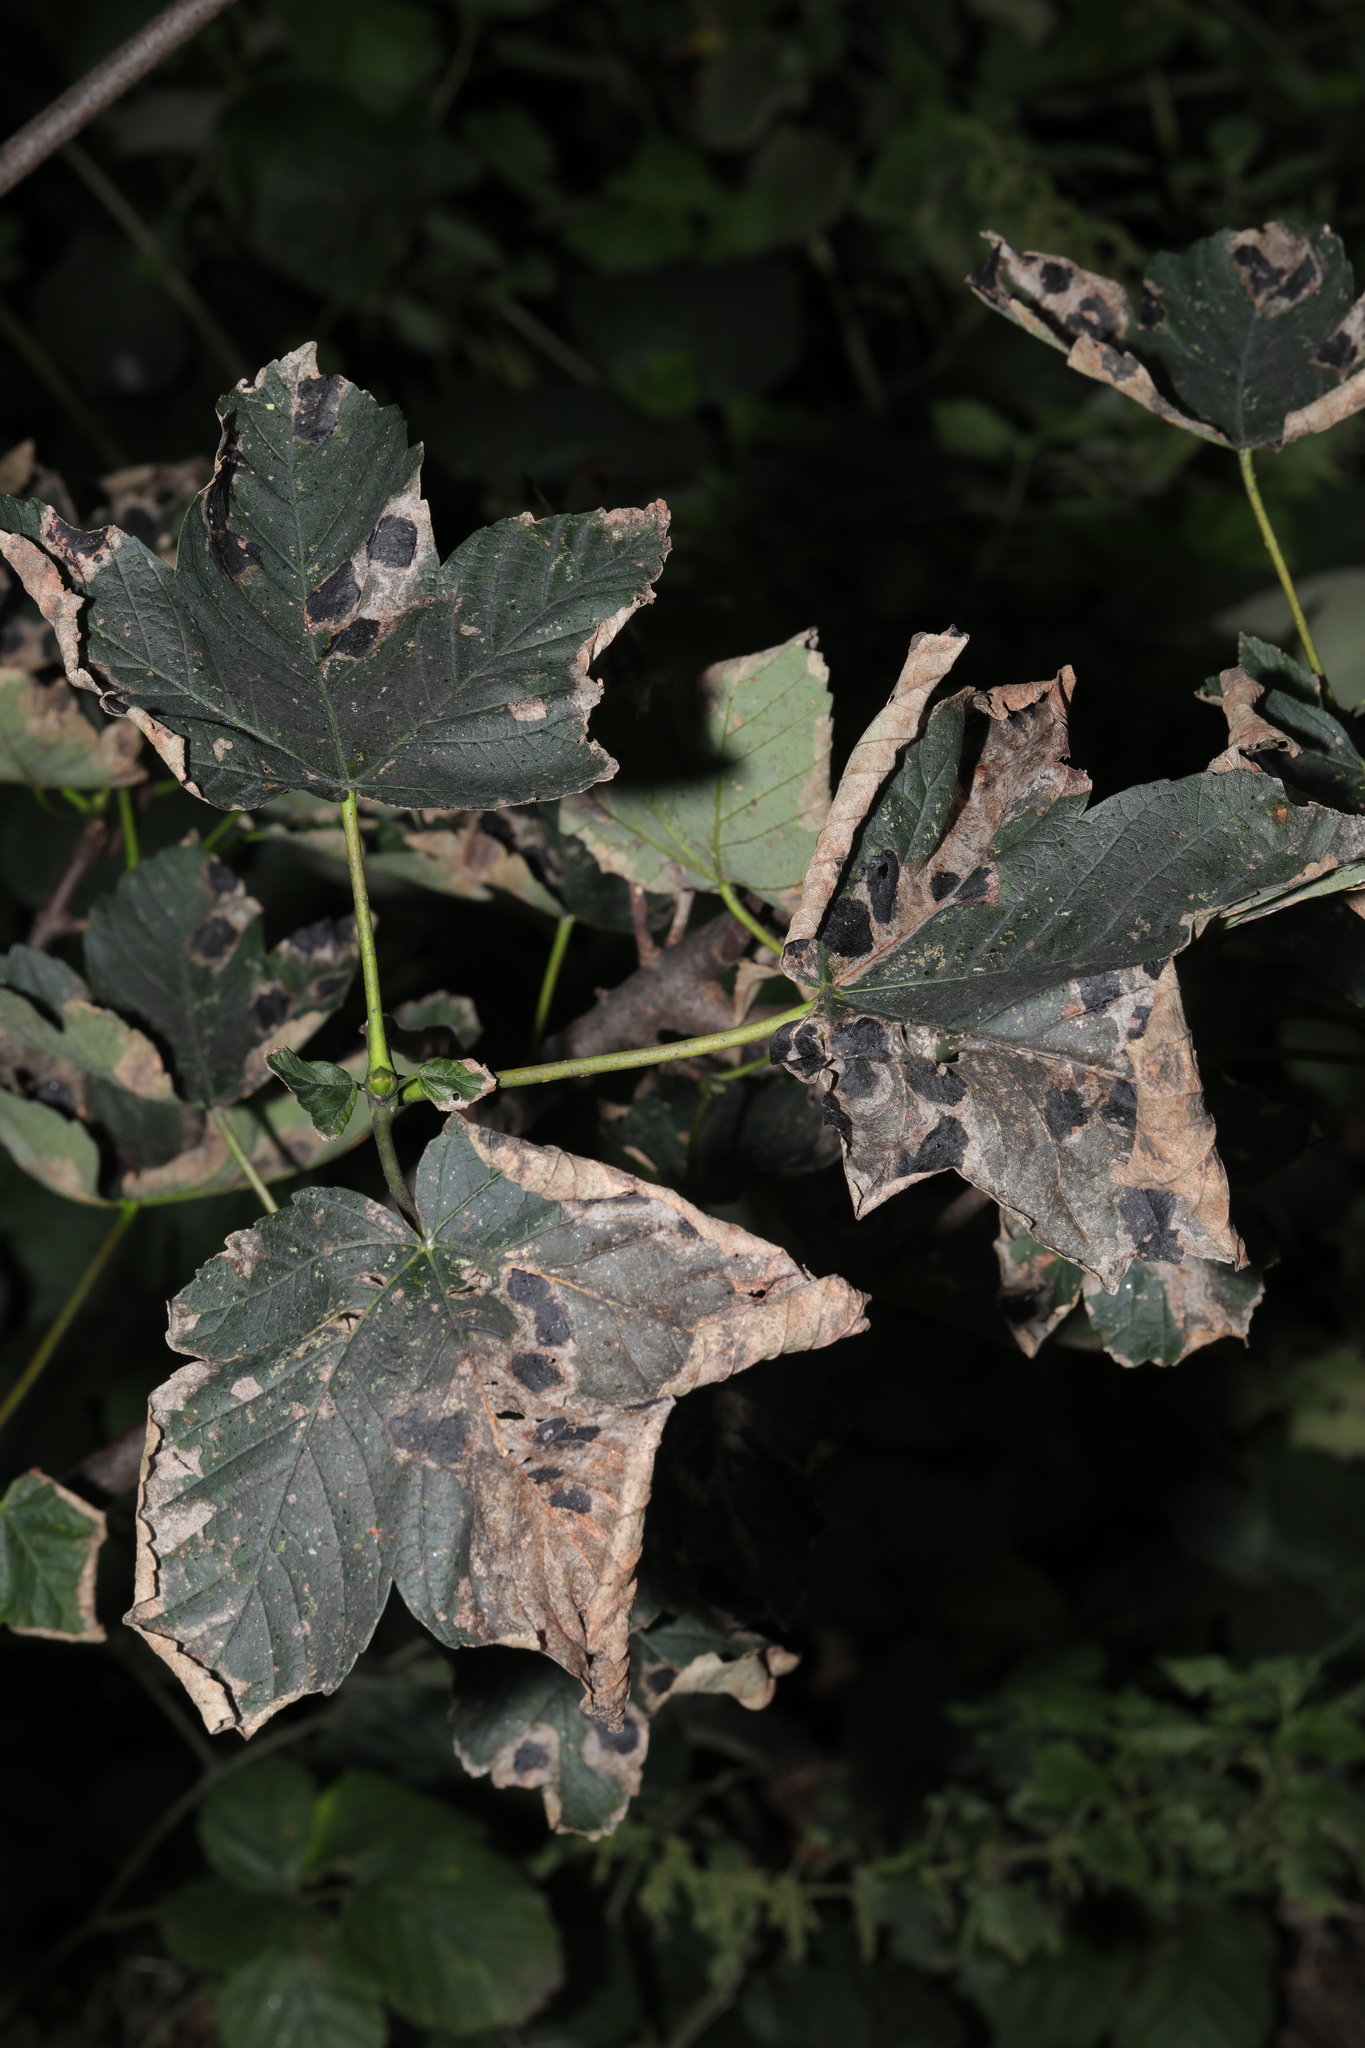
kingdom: Plantae
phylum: Tracheophyta
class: Magnoliopsida
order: Sapindales
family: Sapindaceae
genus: Acer
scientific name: Acer pseudoplatanus
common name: Sycamore
